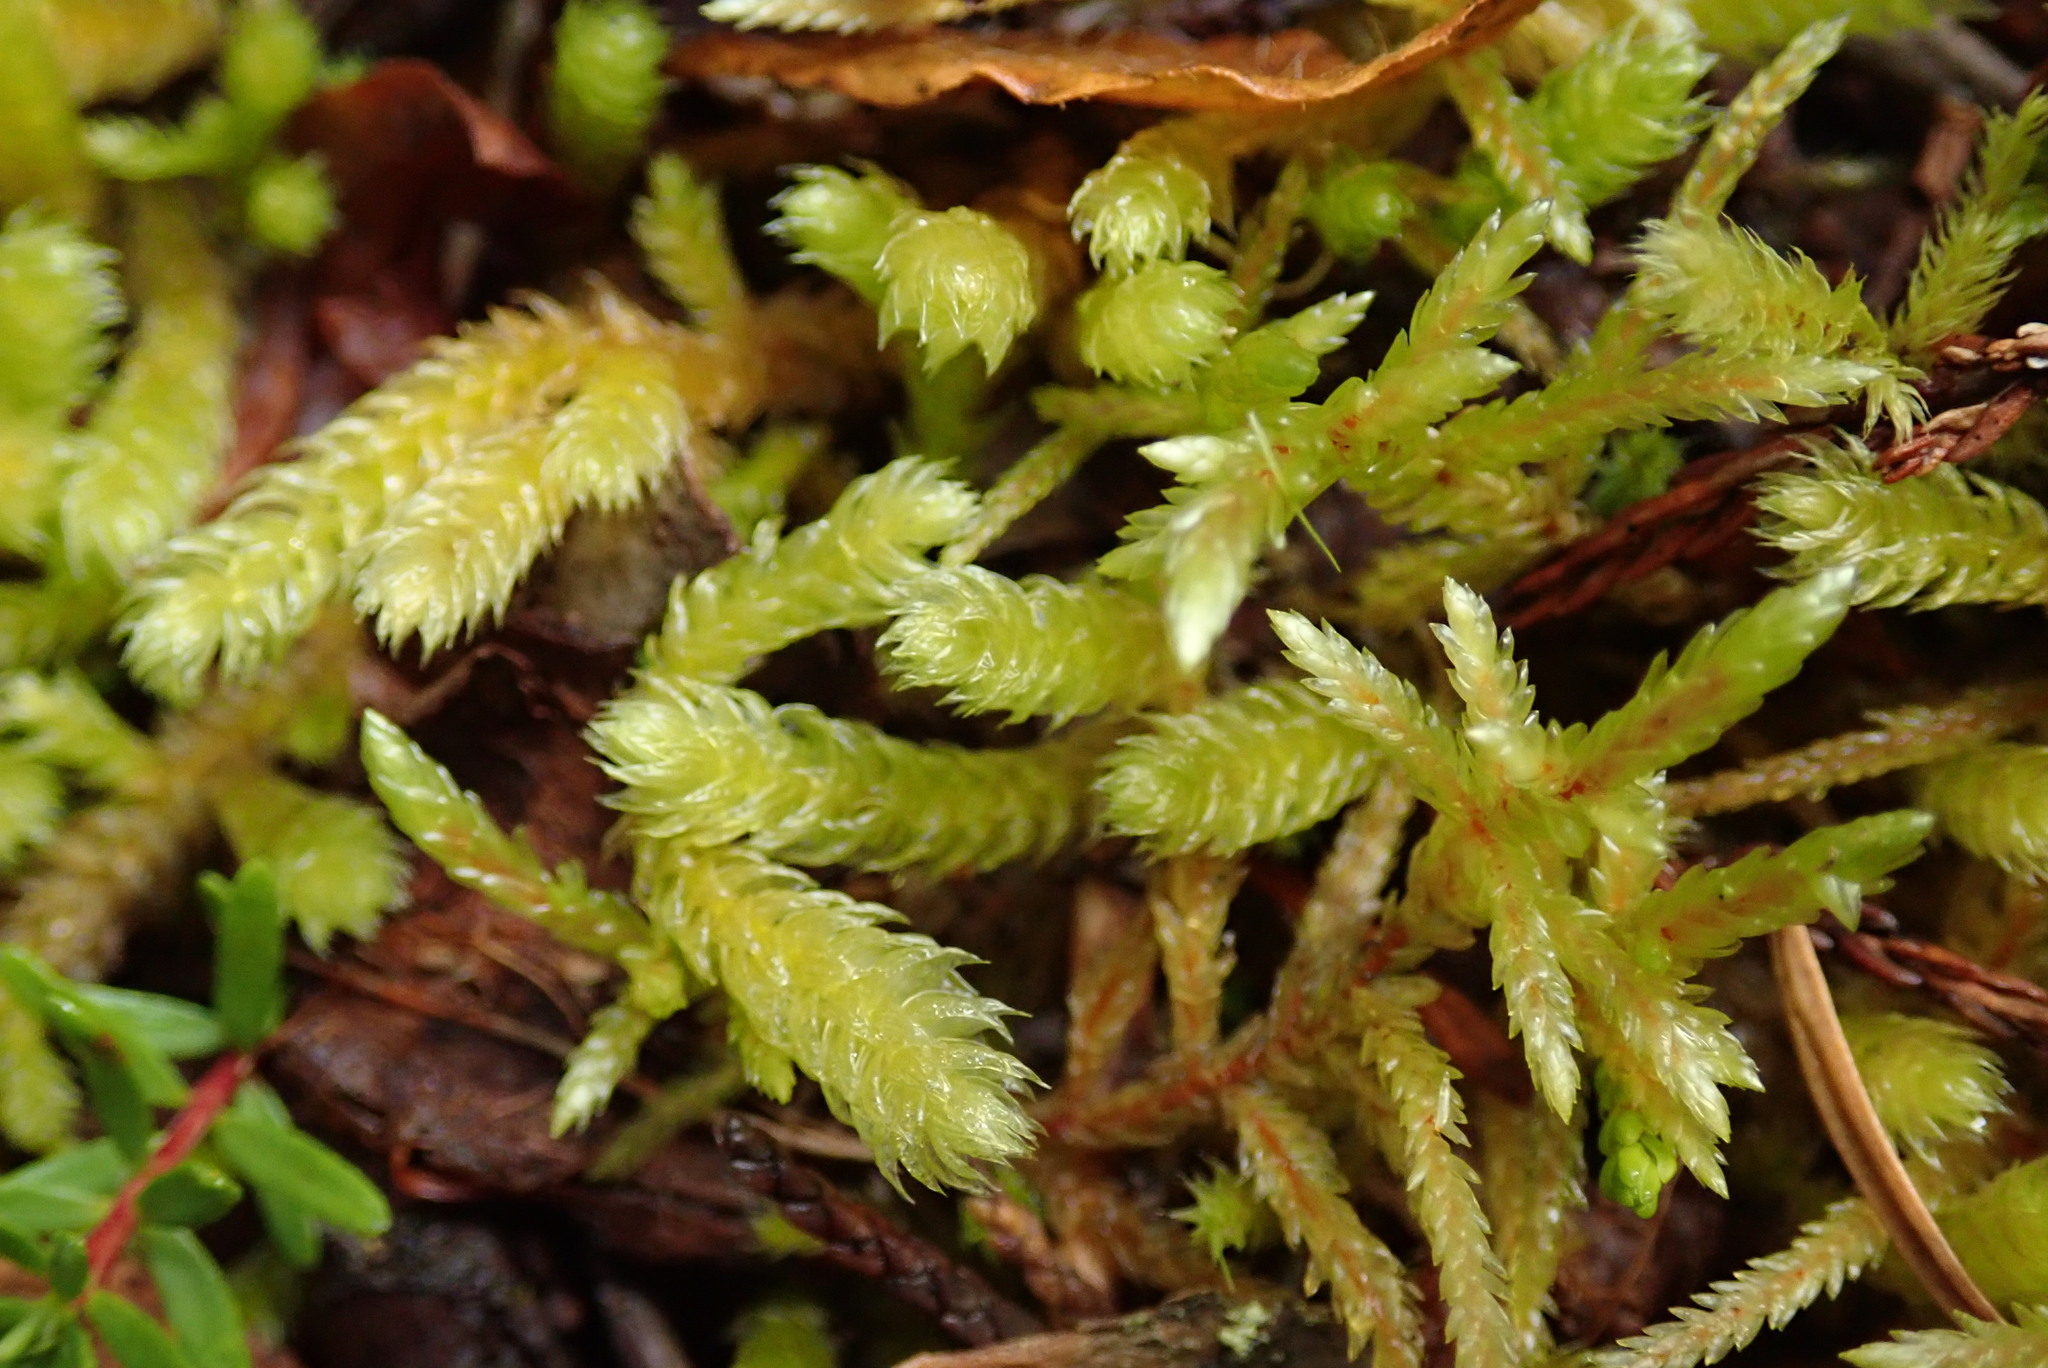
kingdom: Plantae
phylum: Bryophyta
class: Bryopsida
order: Hypnales
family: Hylocomiaceae
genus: Rhytidiopsis
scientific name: Rhytidiopsis robusta
